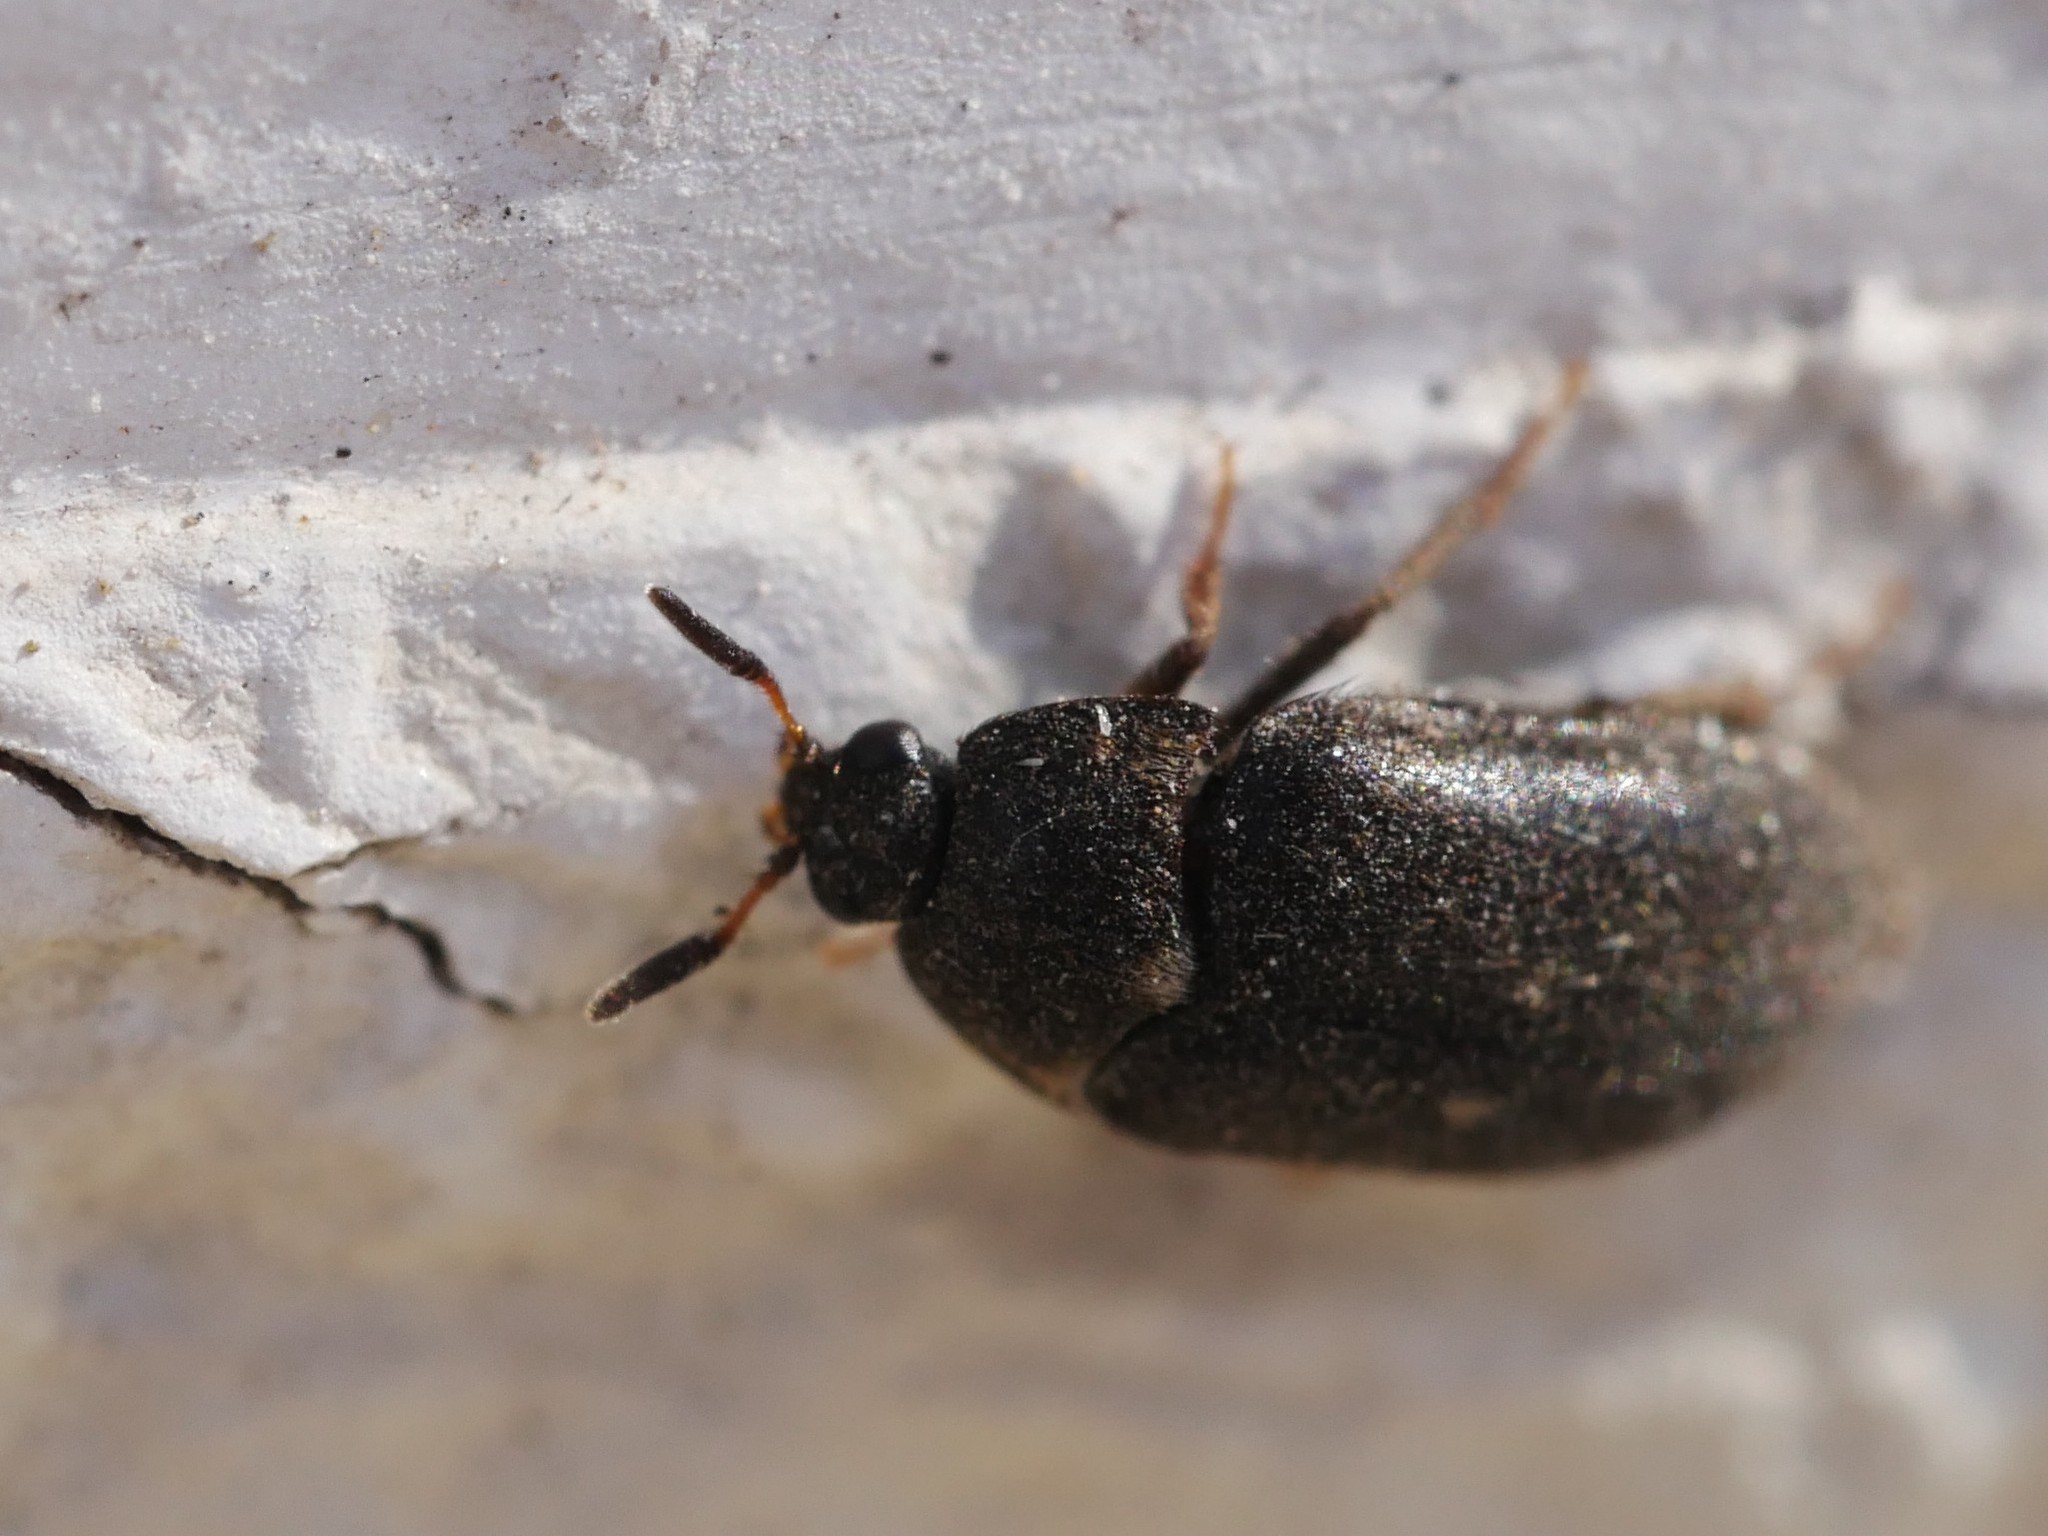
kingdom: Animalia
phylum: Arthropoda
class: Insecta
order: Coleoptera
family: Dermestidae
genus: Attagenus
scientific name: Attagenus pellio
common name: Two-spotted carpet beetle
